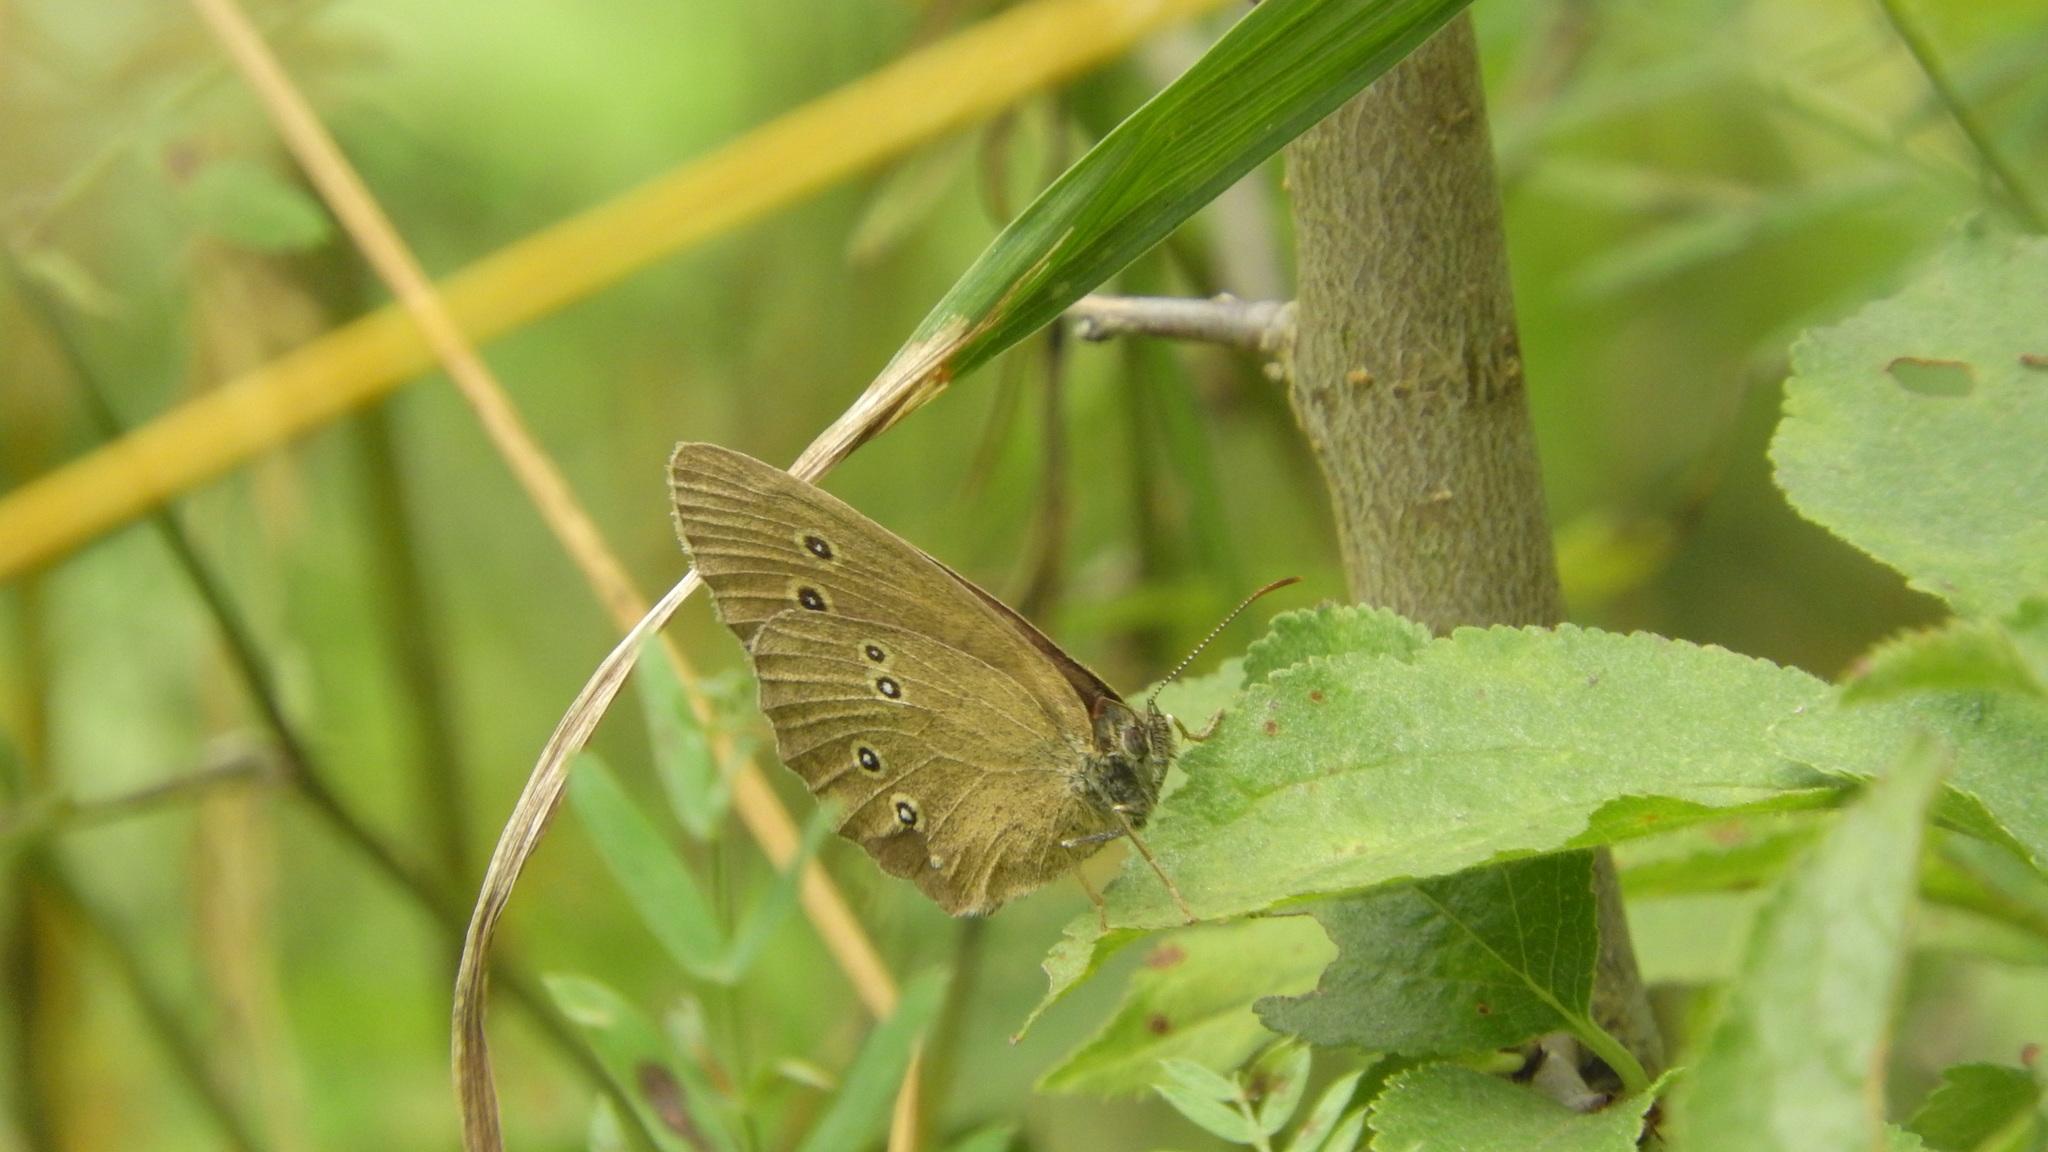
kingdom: Animalia
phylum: Arthropoda
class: Insecta
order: Lepidoptera
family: Nymphalidae
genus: Aphantopus
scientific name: Aphantopus hyperantus
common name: Ringlet
